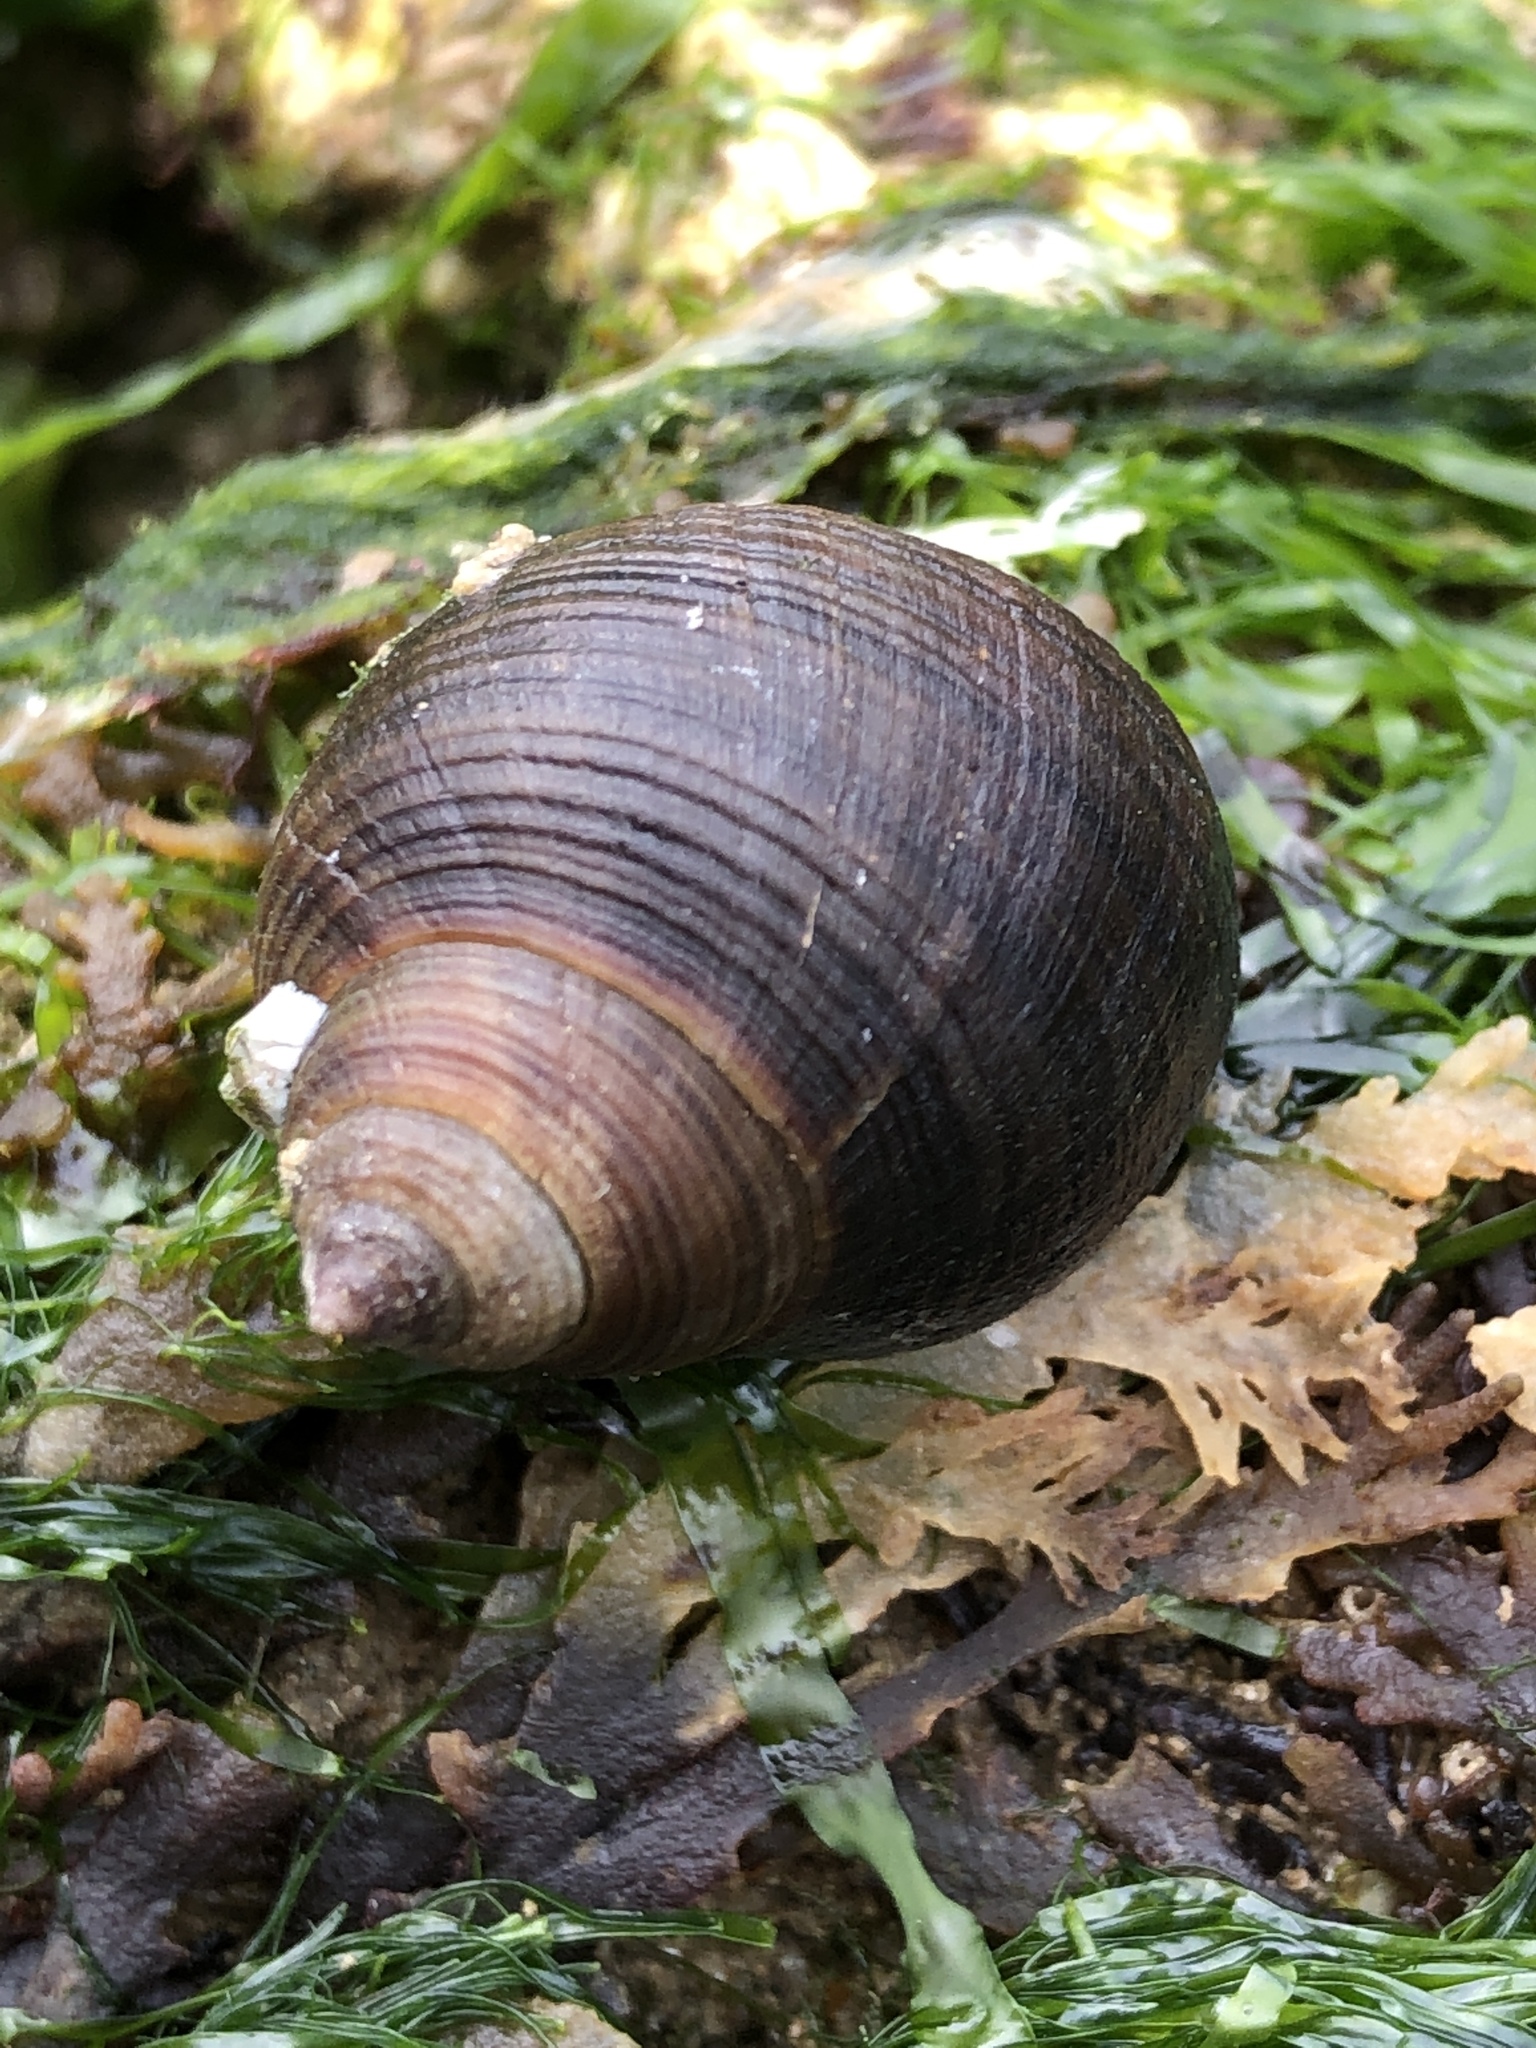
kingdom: Animalia
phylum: Mollusca
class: Gastropoda
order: Littorinimorpha
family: Littorinidae
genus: Littorina
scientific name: Littorina littorea
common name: Common periwinkle
